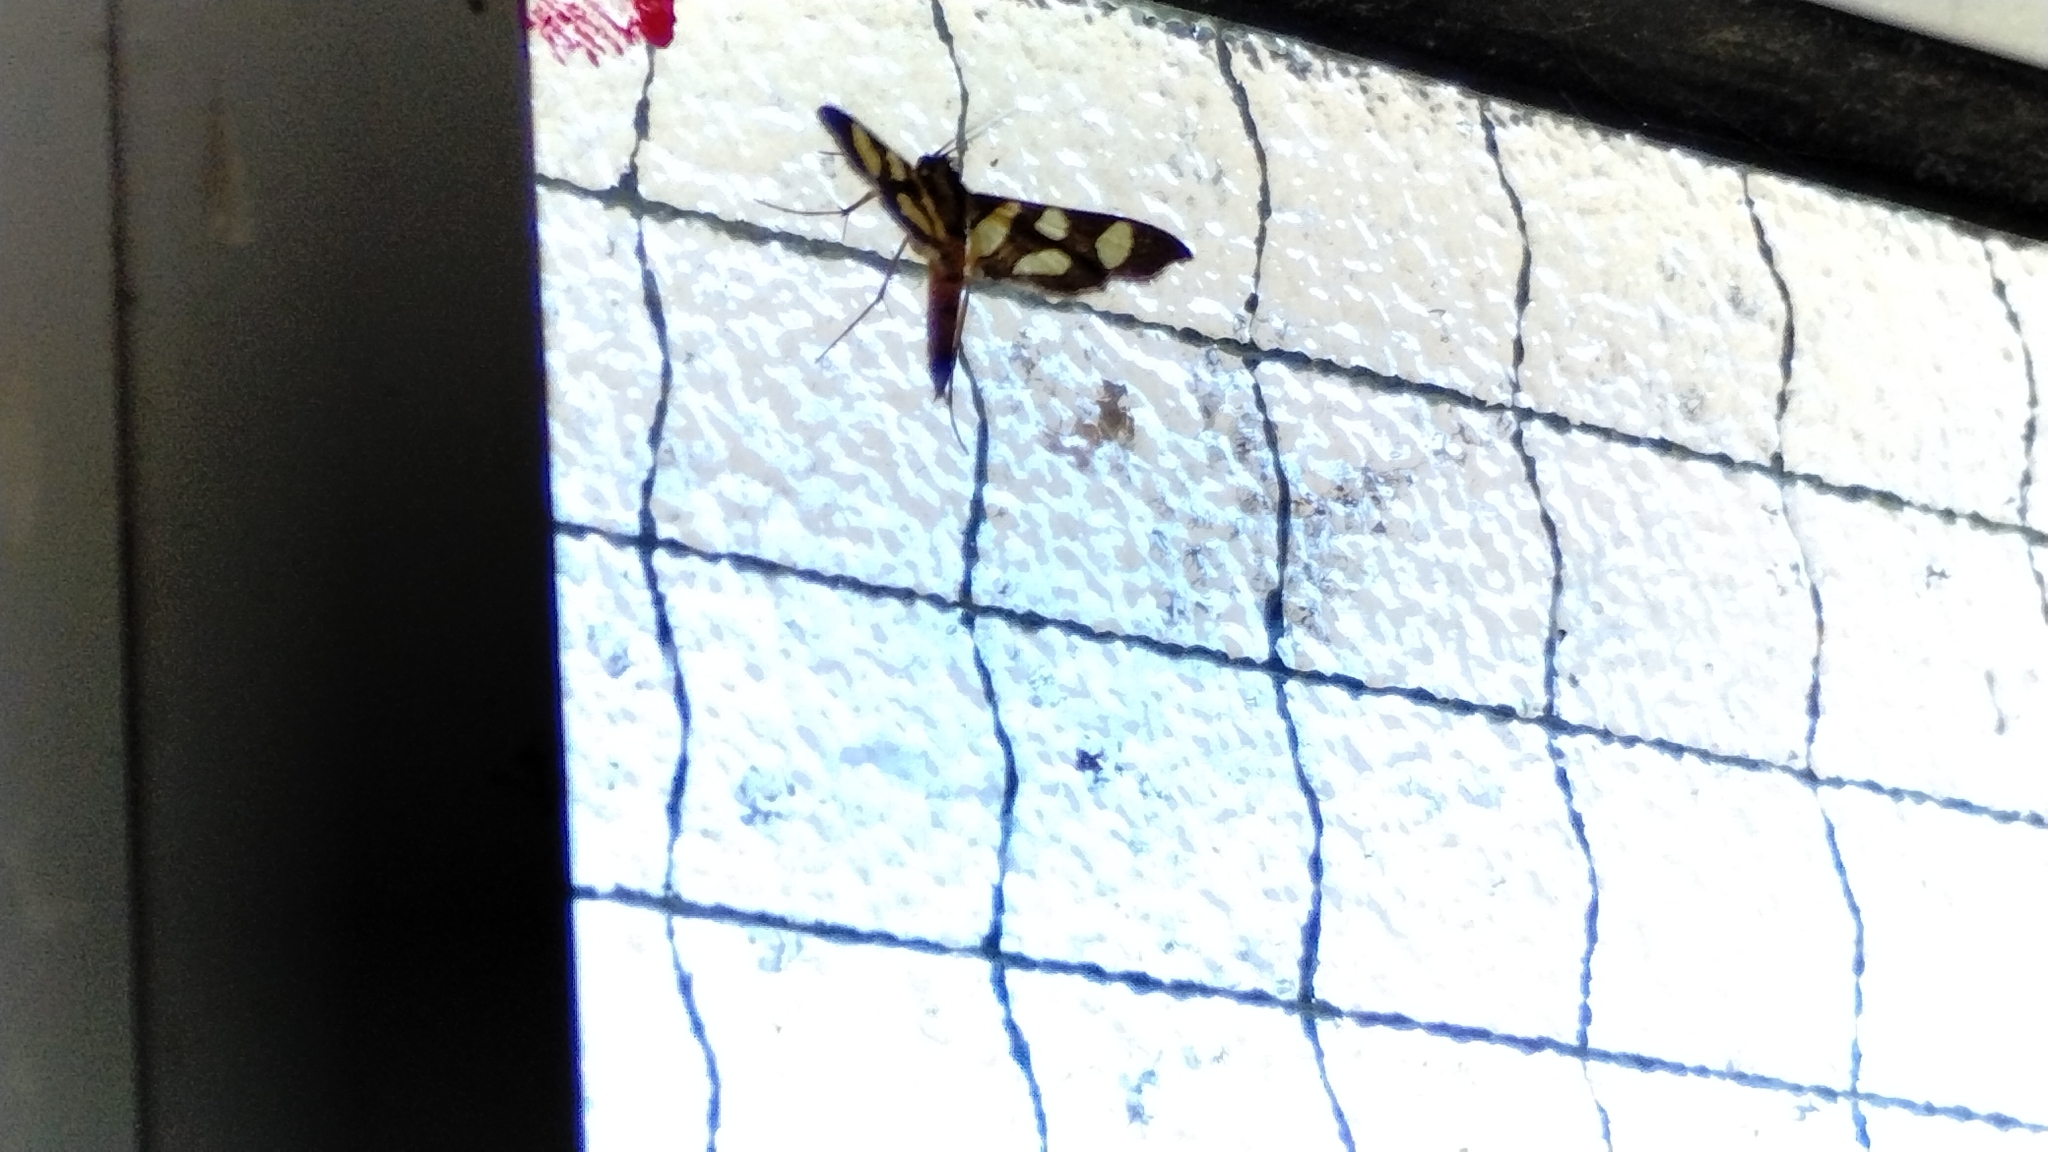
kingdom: Animalia
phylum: Arthropoda
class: Insecta
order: Lepidoptera
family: Crambidae
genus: Syngamia
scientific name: Syngamia florella
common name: Orange-spotted flower moth
